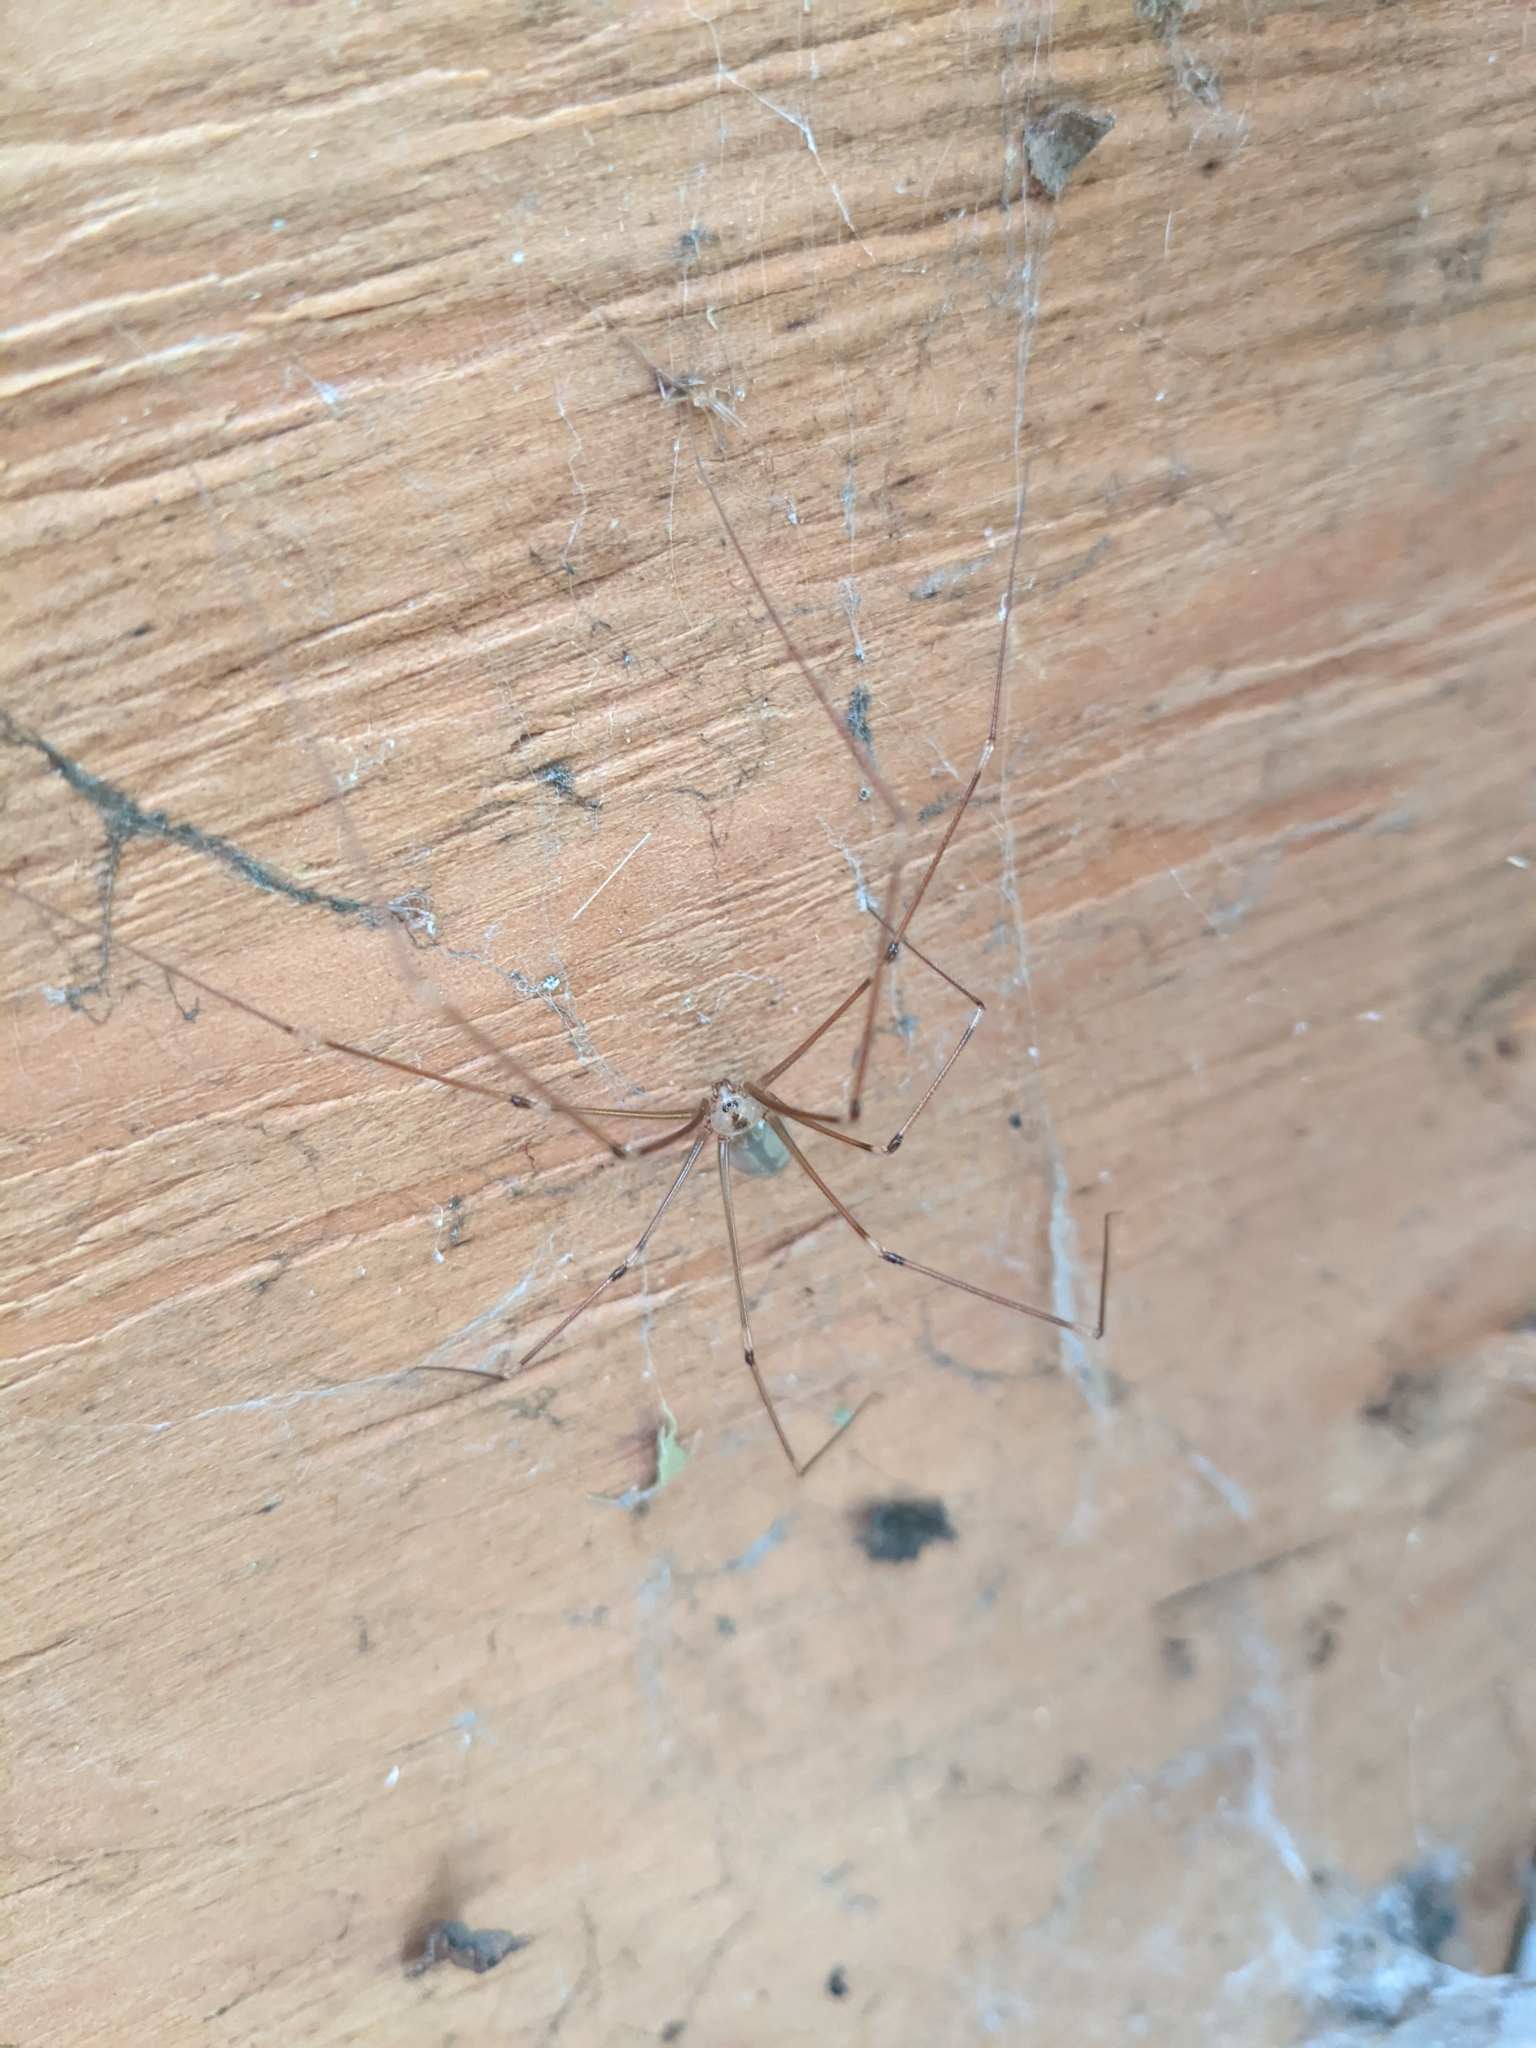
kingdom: Animalia
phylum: Arthropoda
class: Arachnida
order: Araneae
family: Pholcidae
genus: Pholcus
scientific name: Pholcus phalangioides
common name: Longbodied cellar spider
